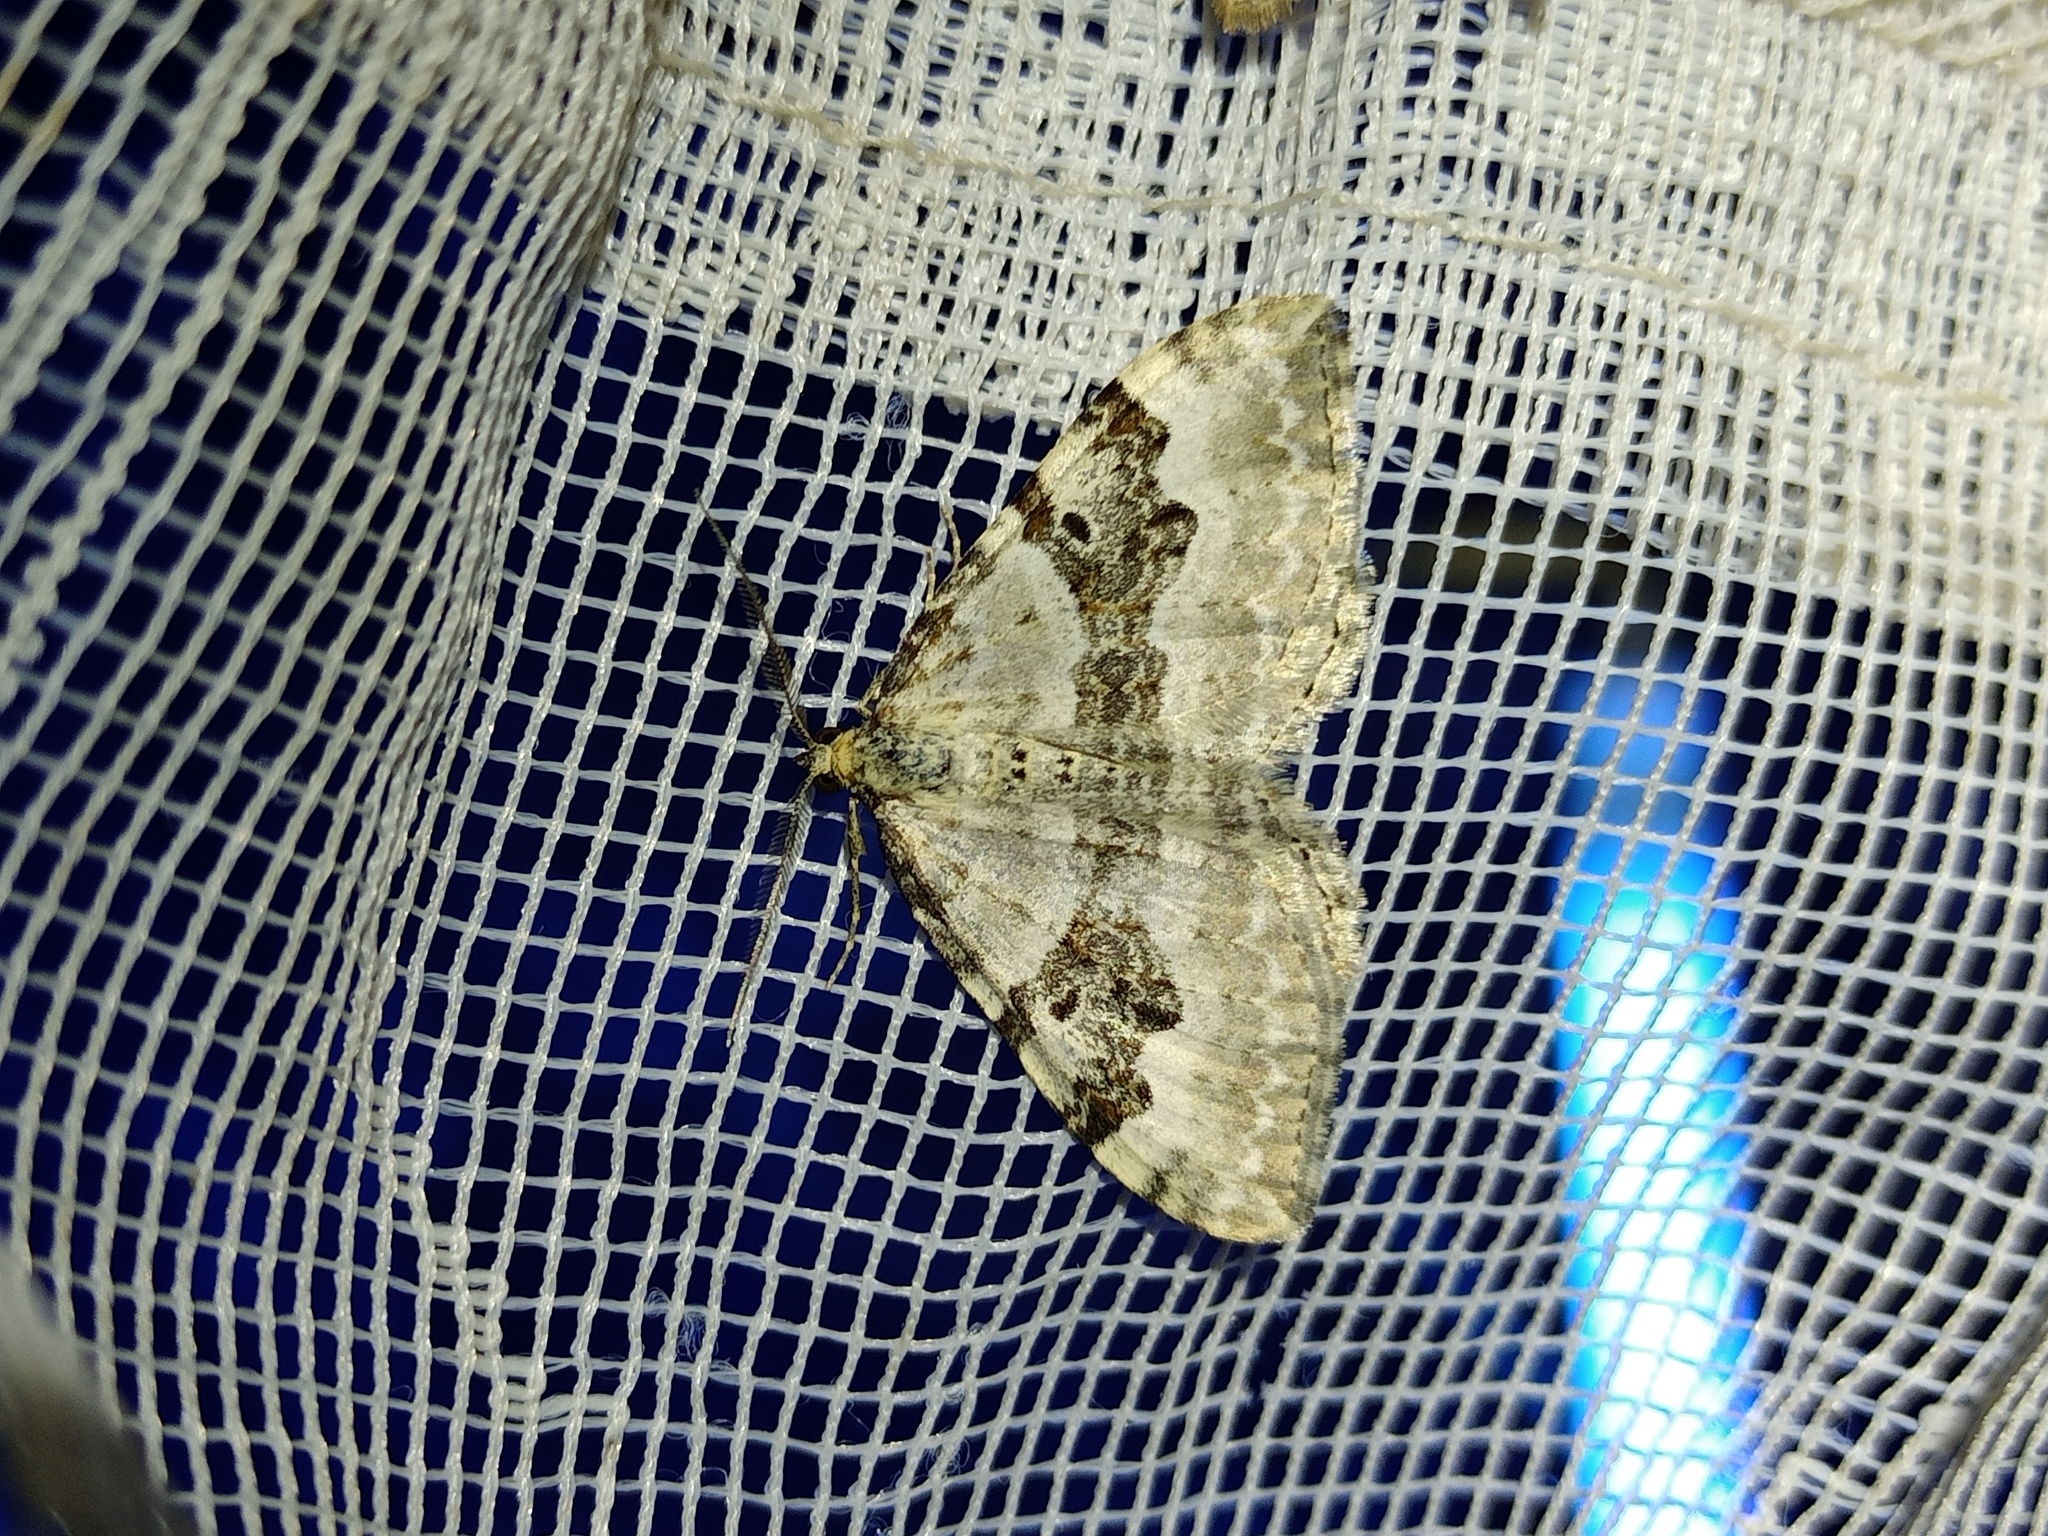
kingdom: Animalia
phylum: Arthropoda
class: Insecta
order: Lepidoptera
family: Geometridae
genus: Xanthorhoe
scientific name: Xanthorhoe montanata
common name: Silver-ground carpet
